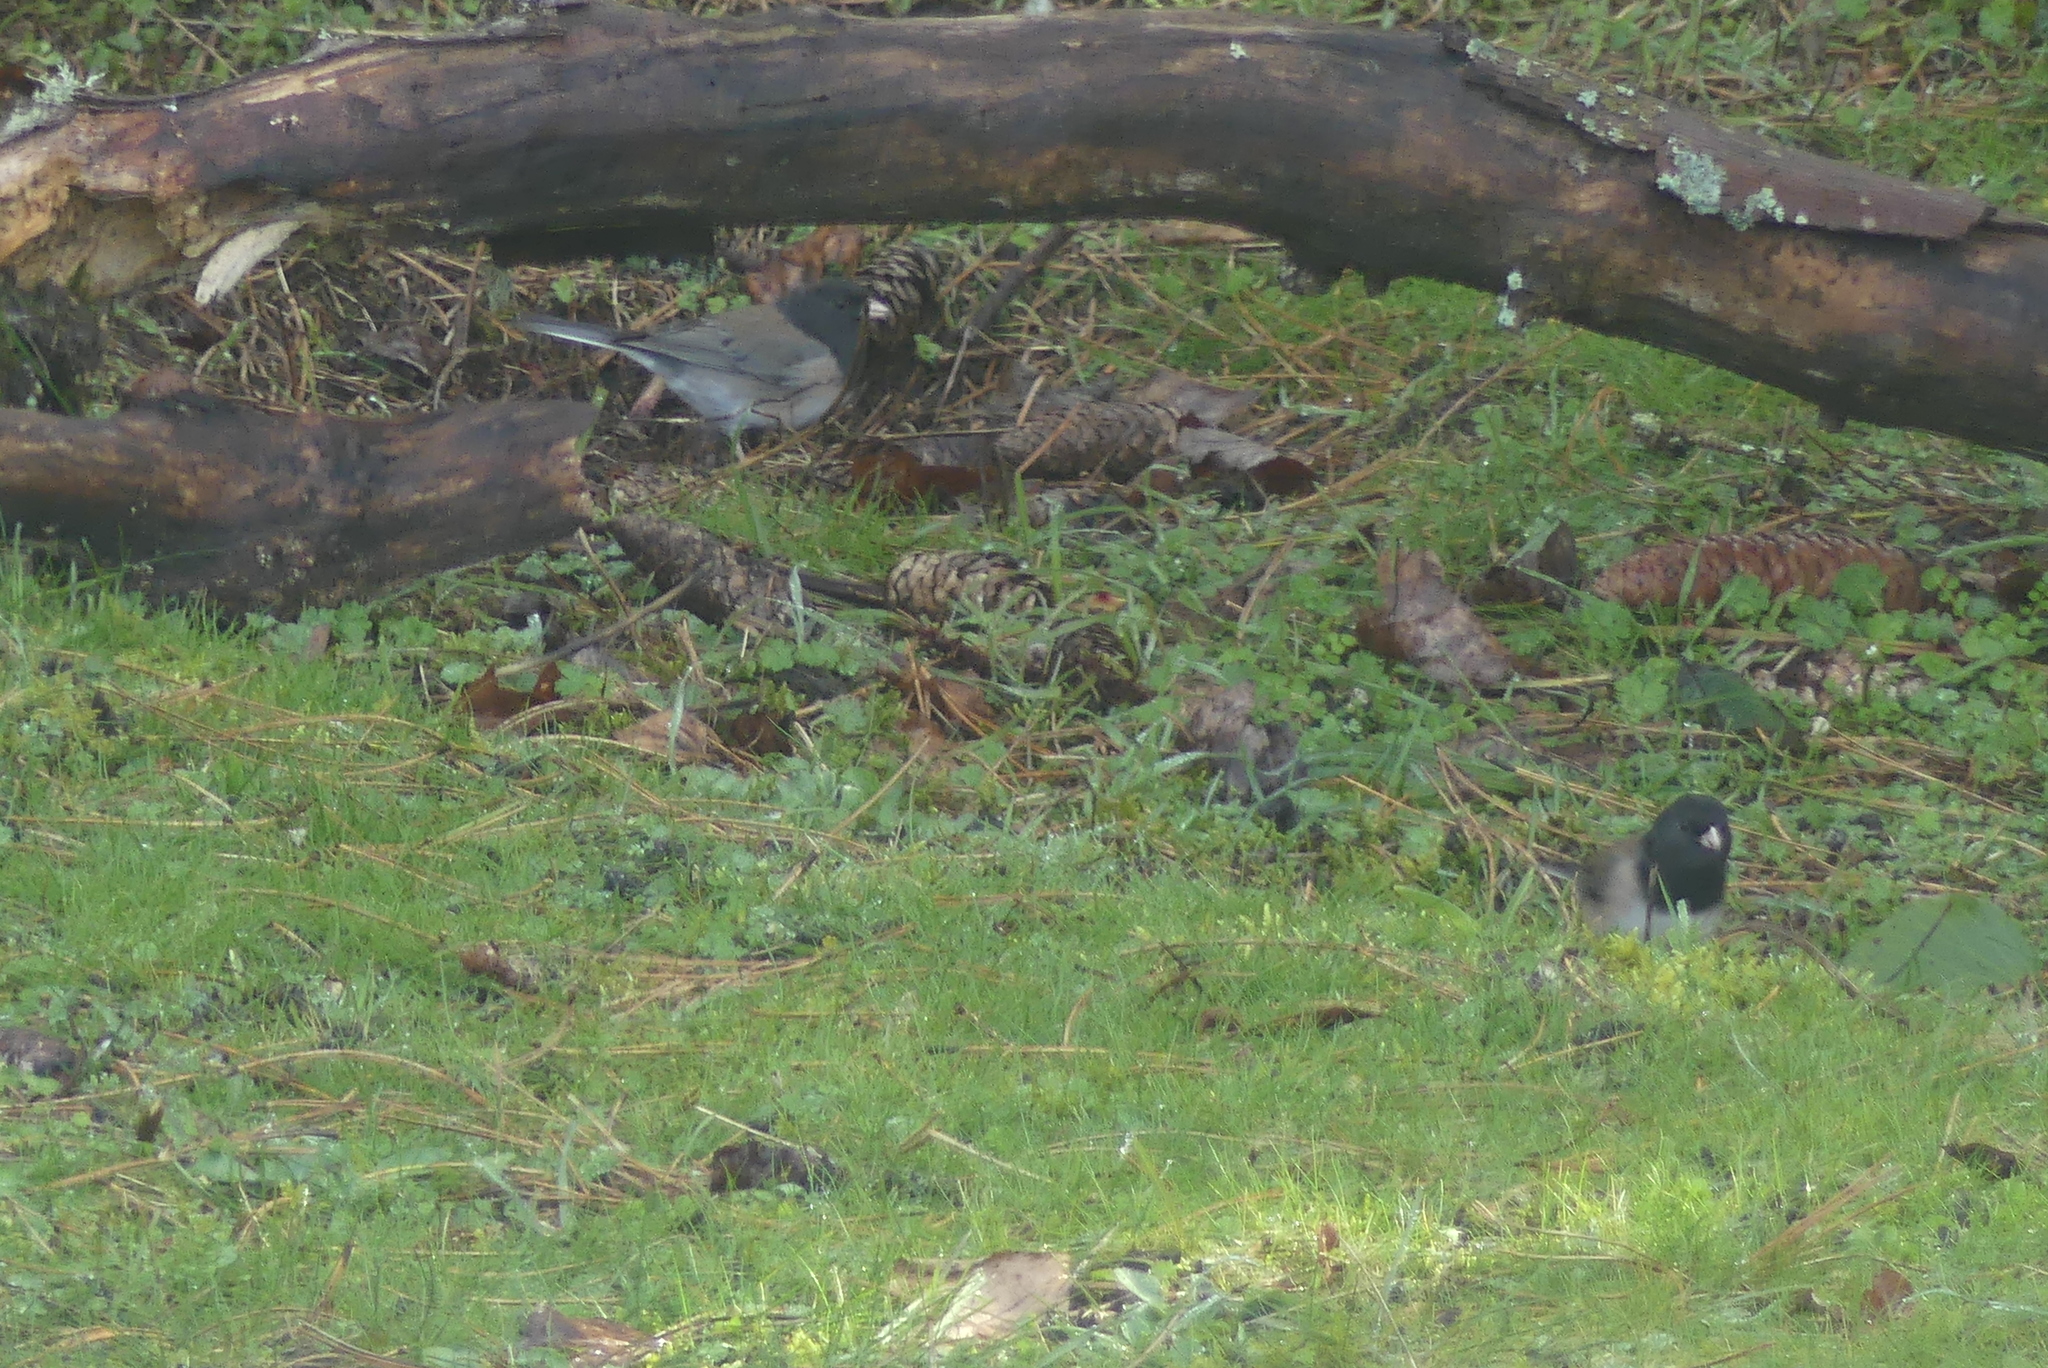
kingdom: Animalia
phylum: Chordata
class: Aves
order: Passeriformes
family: Passerellidae
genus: Junco
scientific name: Junco hyemalis
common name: Dark-eyed junco
